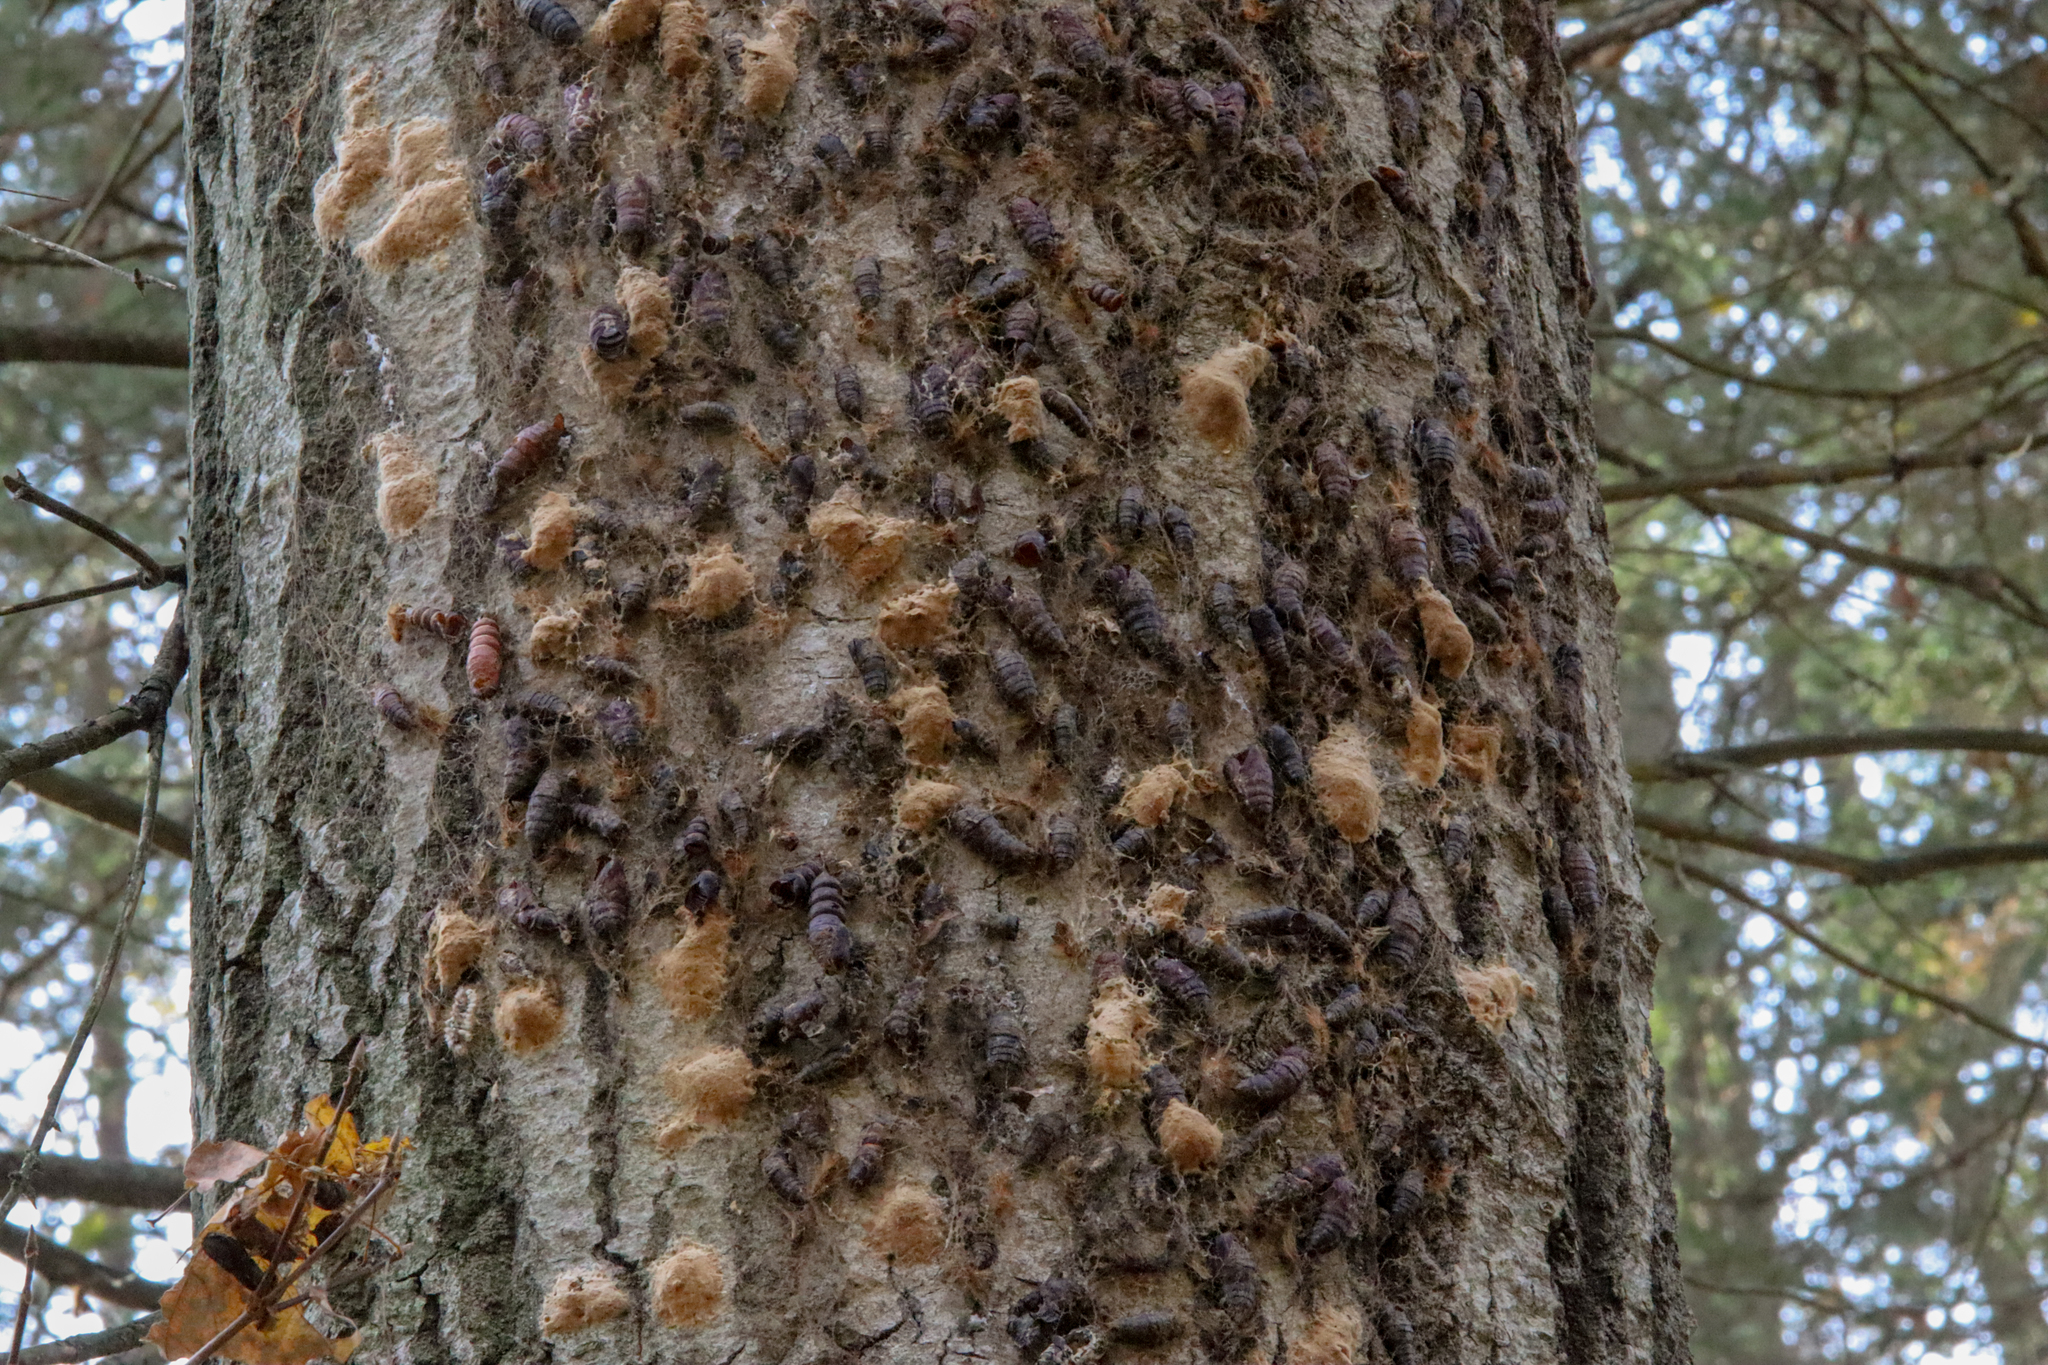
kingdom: Animalia
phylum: Arthropoda
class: Insecta
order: Lepidoptera
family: Erebidae
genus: Lymantria
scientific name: Lymantria dispar
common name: Gypsy moth
